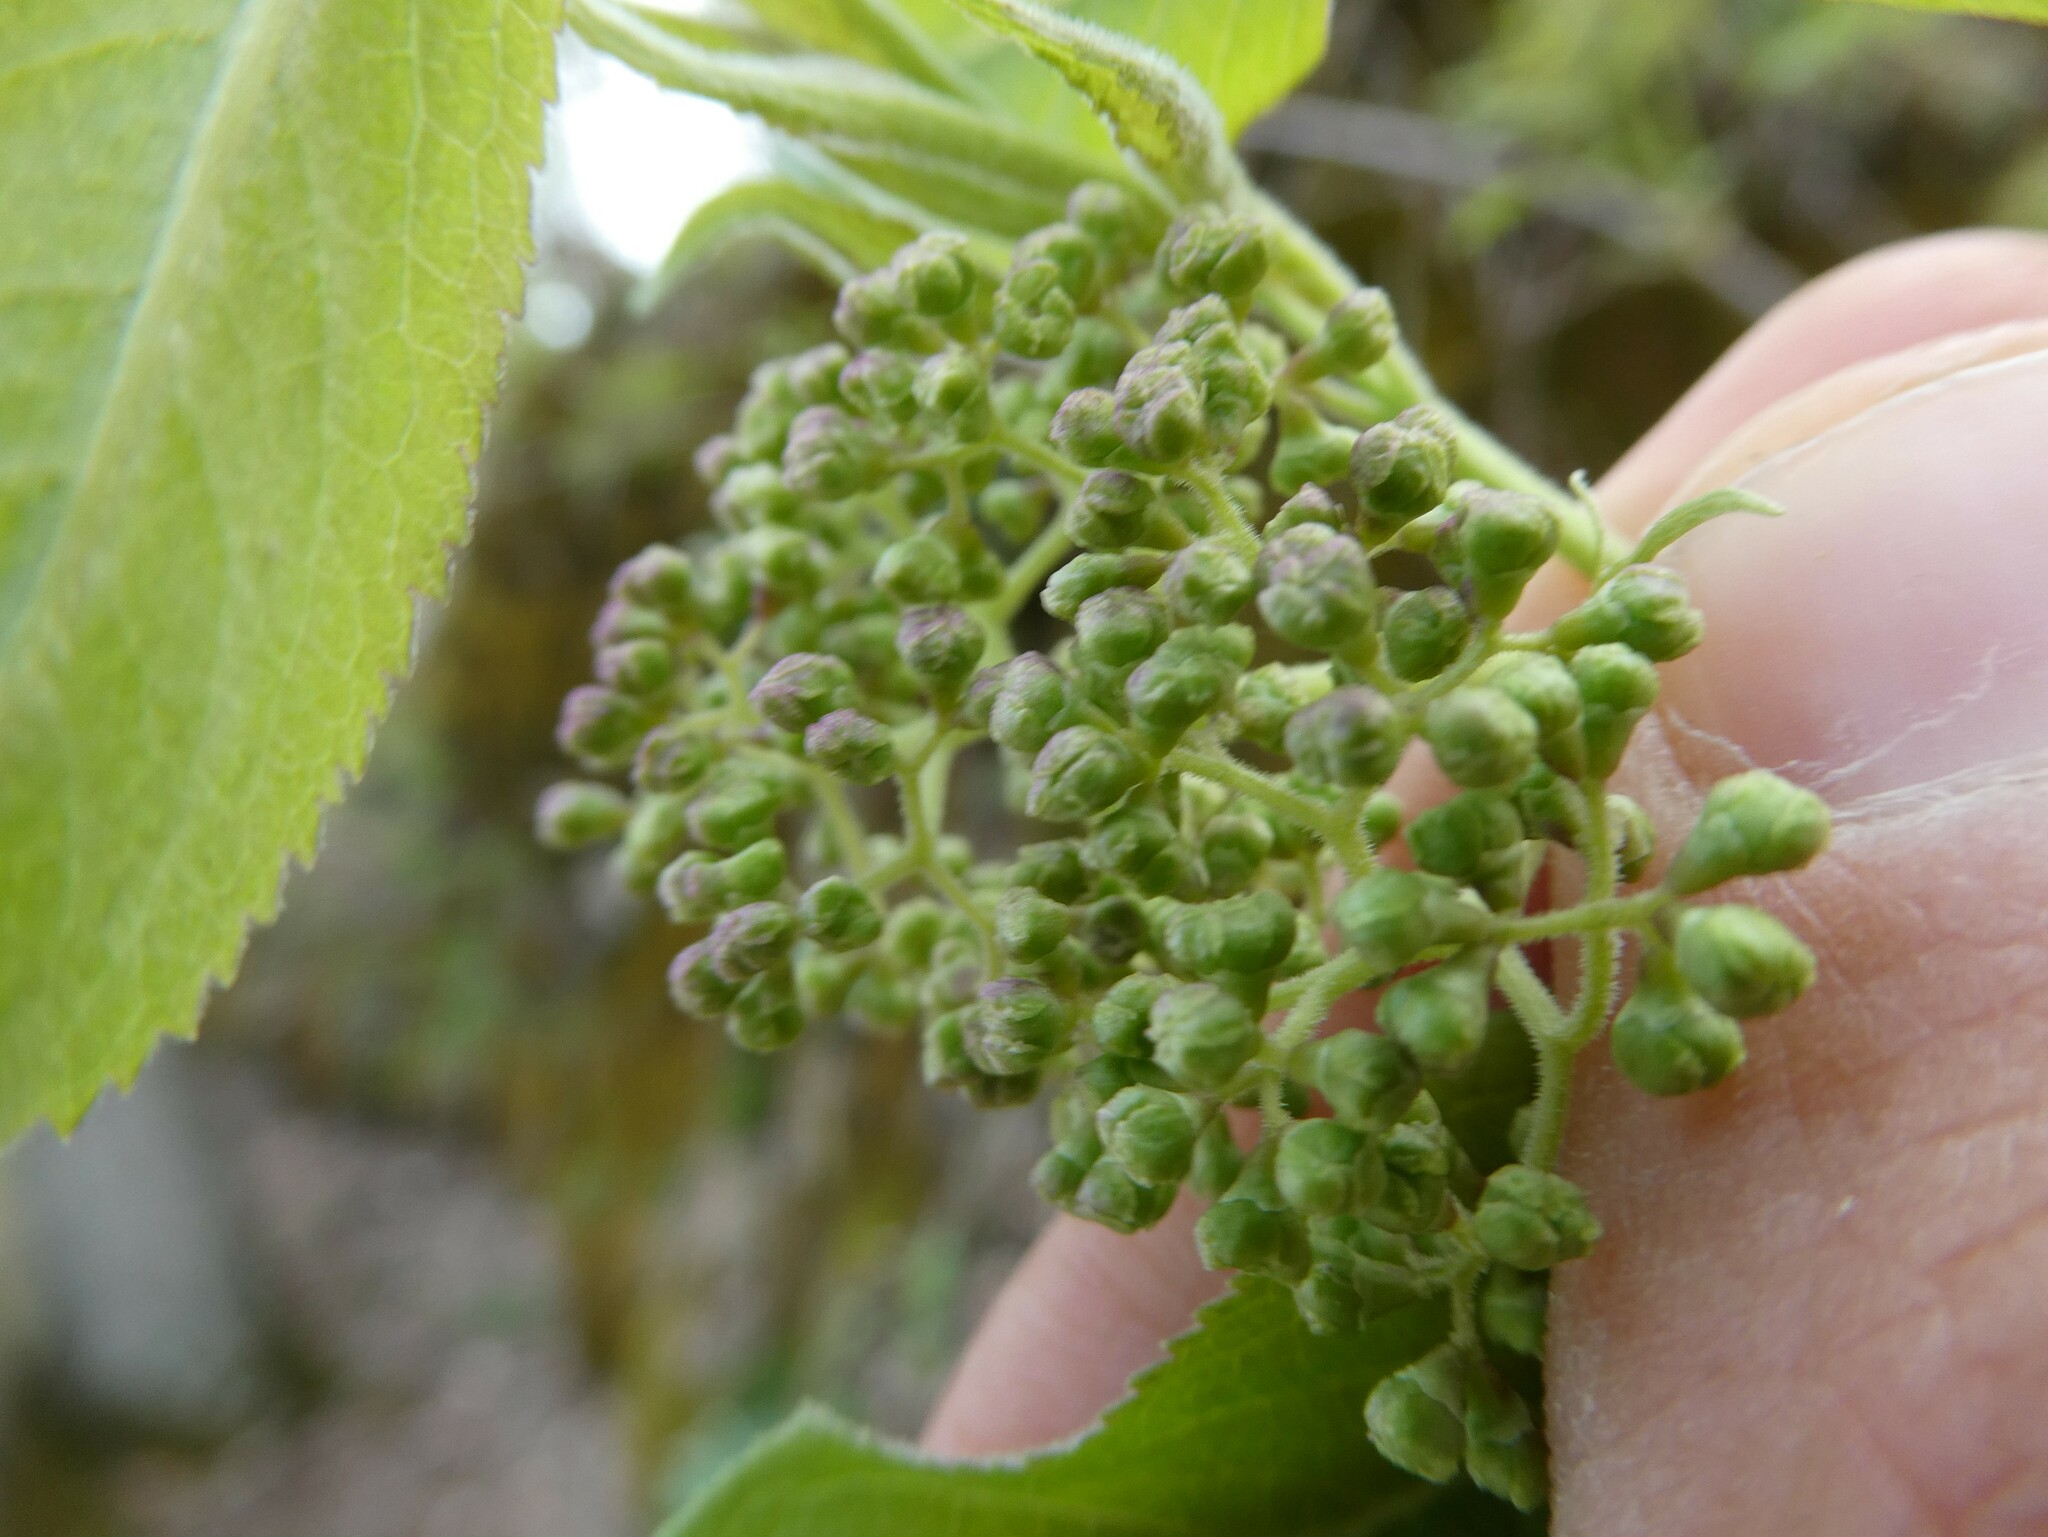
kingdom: Plantae
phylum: Tracheophyta
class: Magnoliopsida
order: Dipsacales
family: Viburnaceae
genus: Sambucus
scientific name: Sambucus racemosa
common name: Red-berried elder
